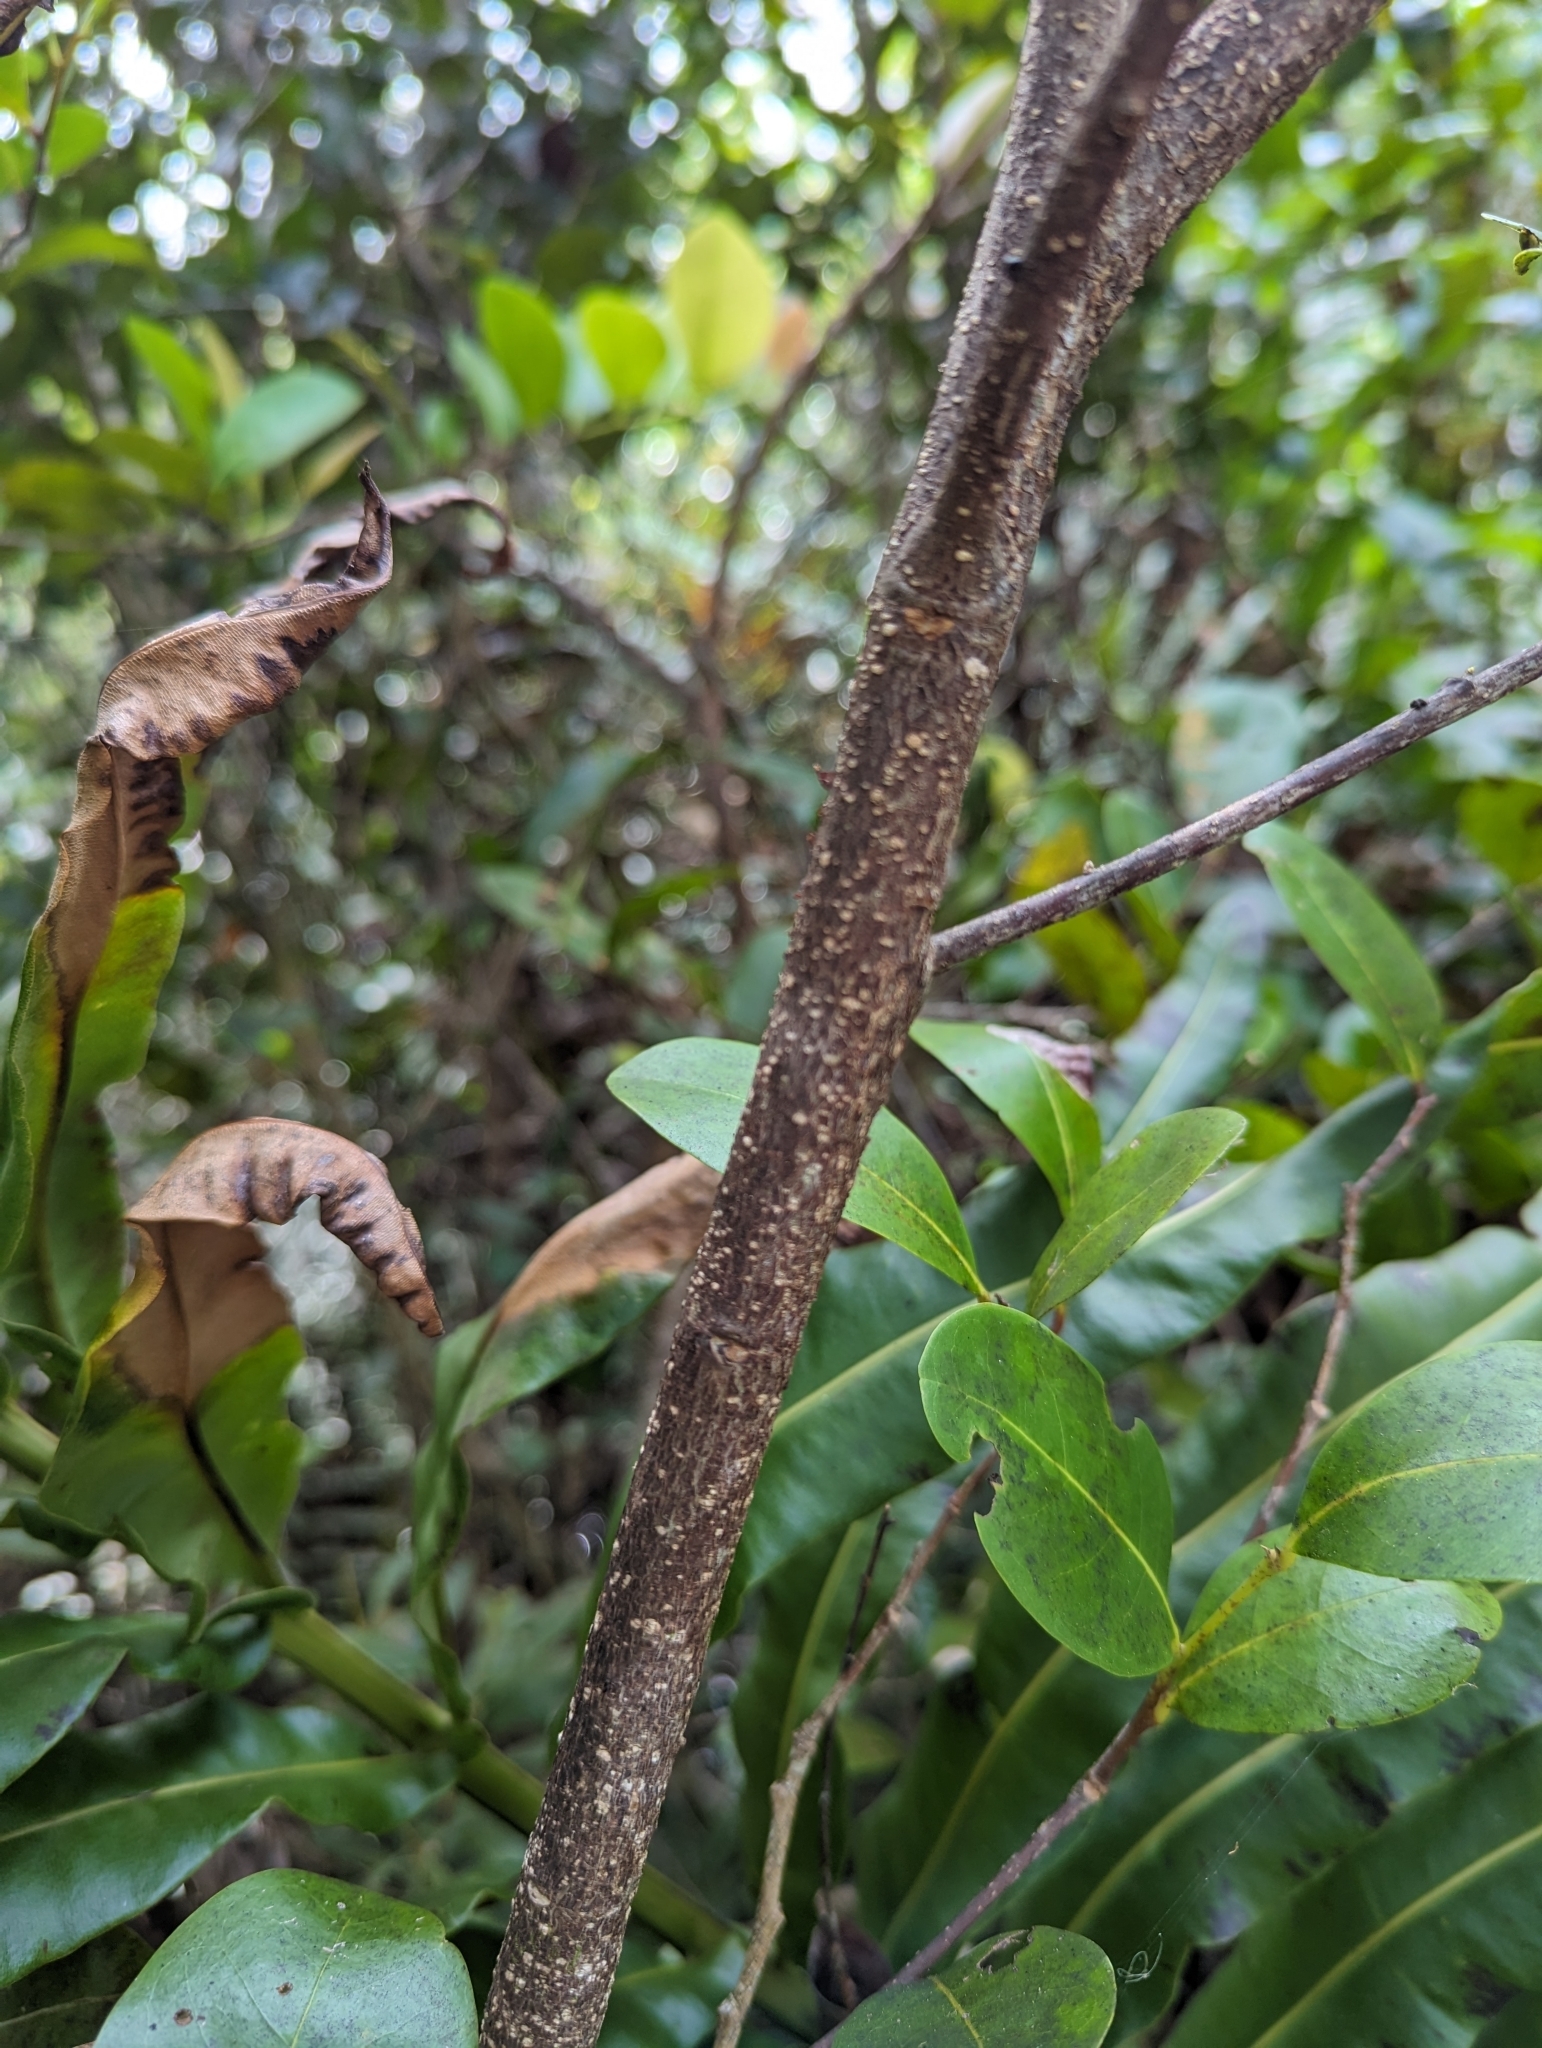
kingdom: Plantae
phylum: Tracheophyta
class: Magnoliopsida
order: Malpighiales
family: Chrysobalanaceae
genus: Chrysobalanus
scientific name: Chrysobalanus icaco
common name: Coco plum
